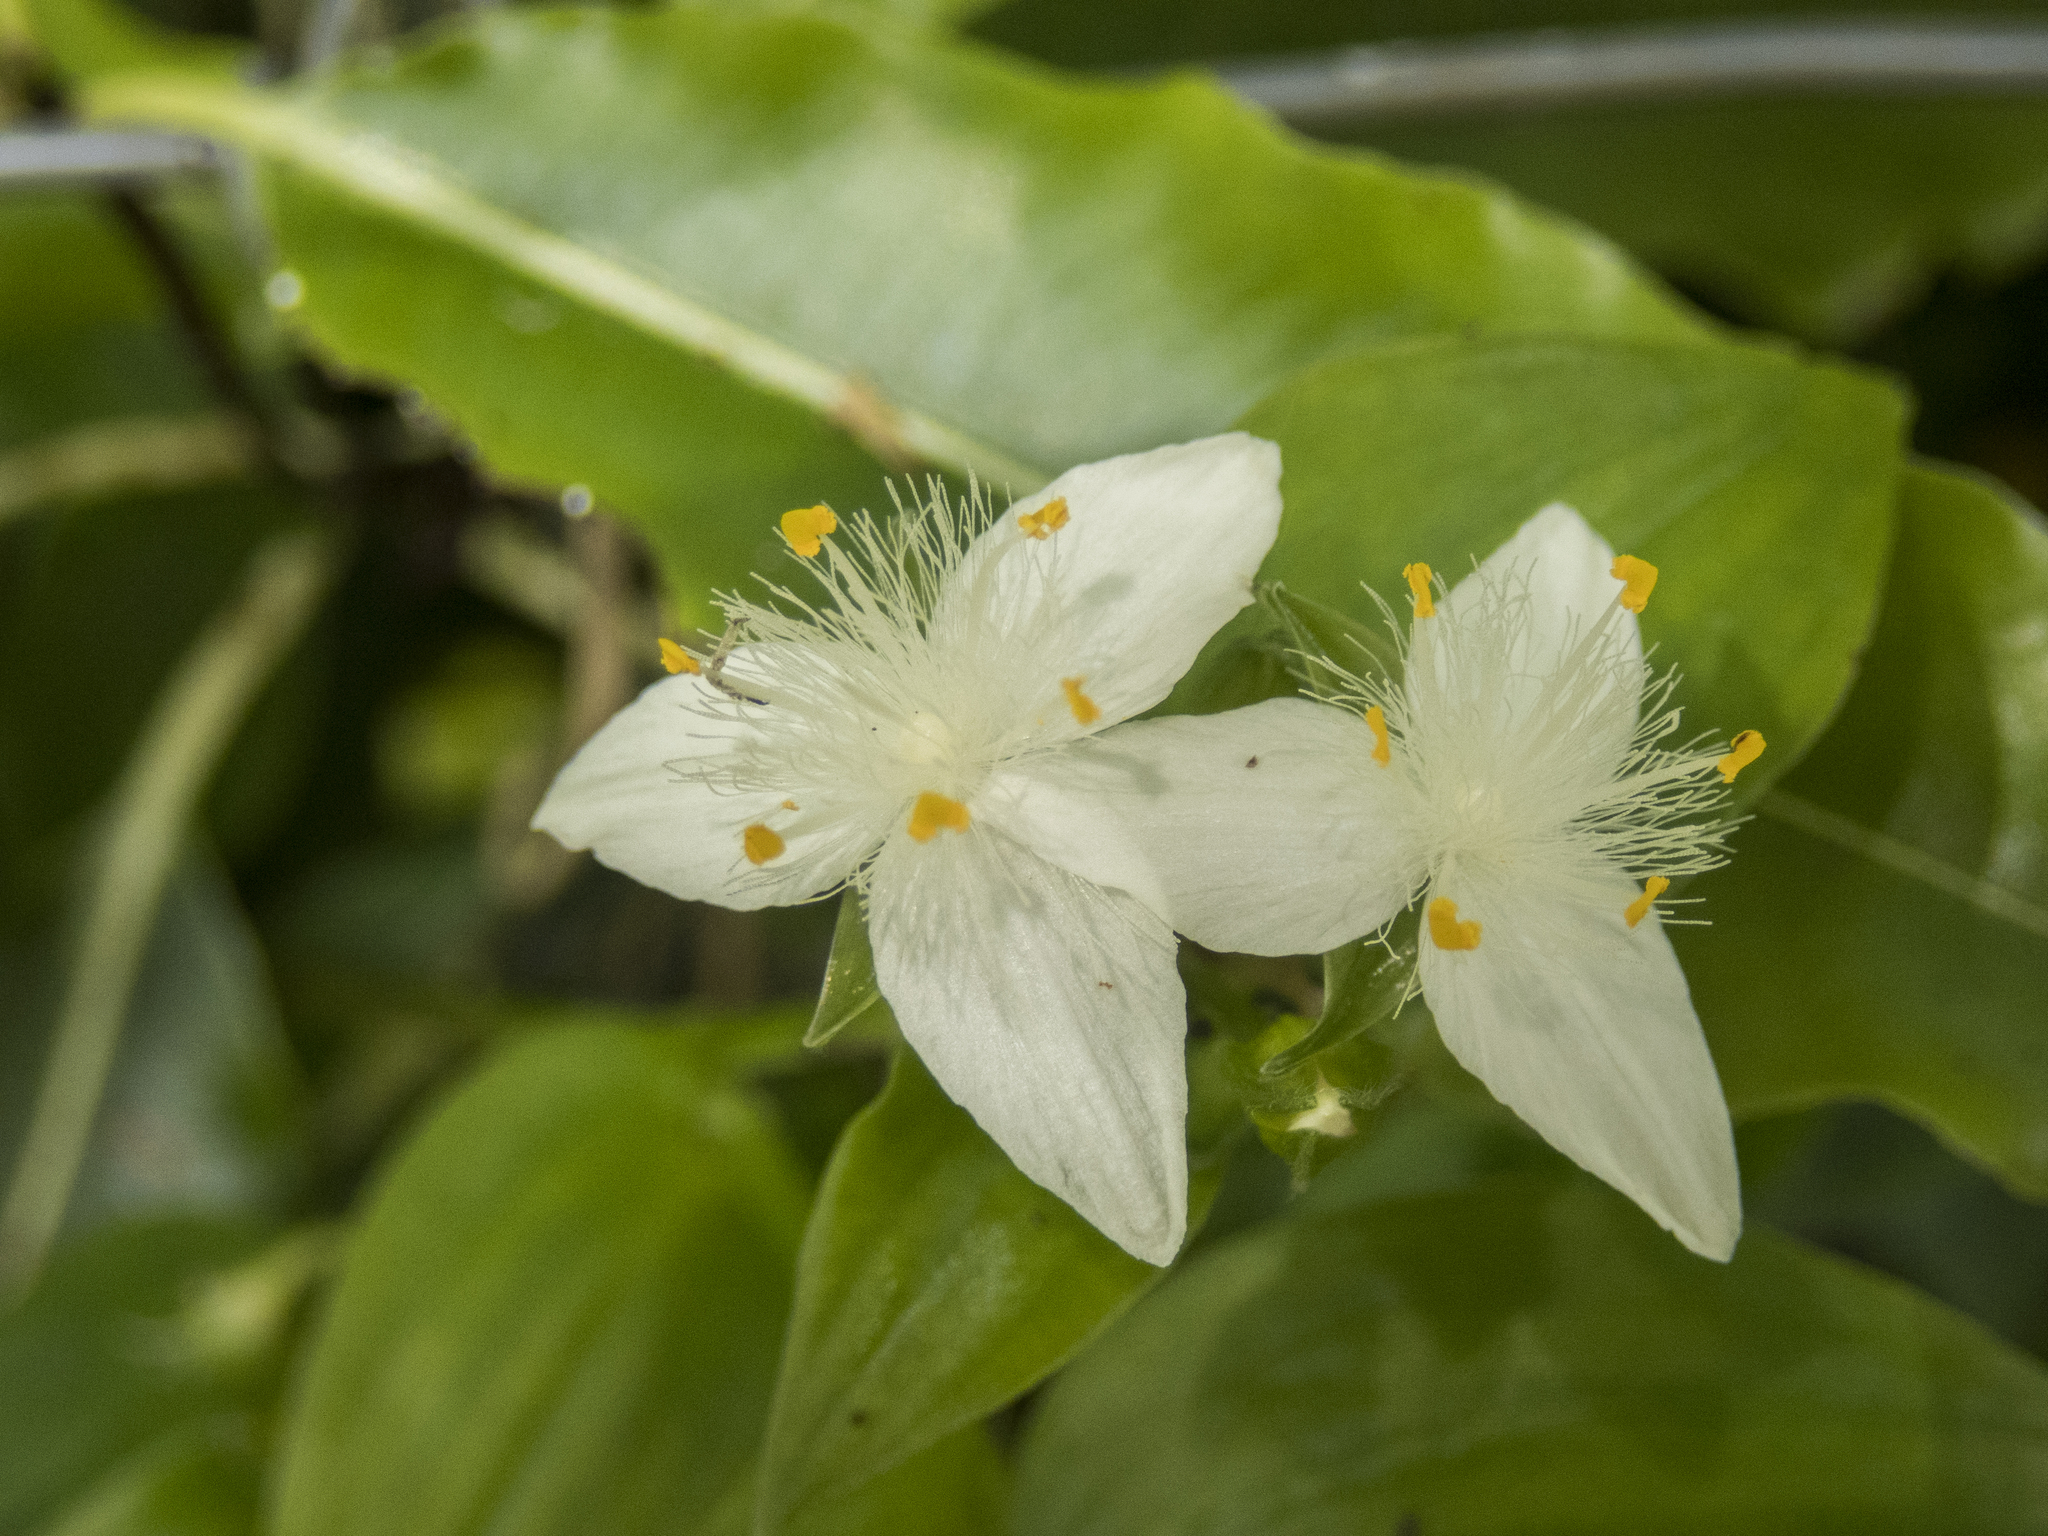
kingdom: Plantae
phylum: Tracheophyta
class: Liliopsida
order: Commelinales
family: Commelinaceae
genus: Tradescantia
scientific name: Tradescantia fluminensis
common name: Wandering-jew
